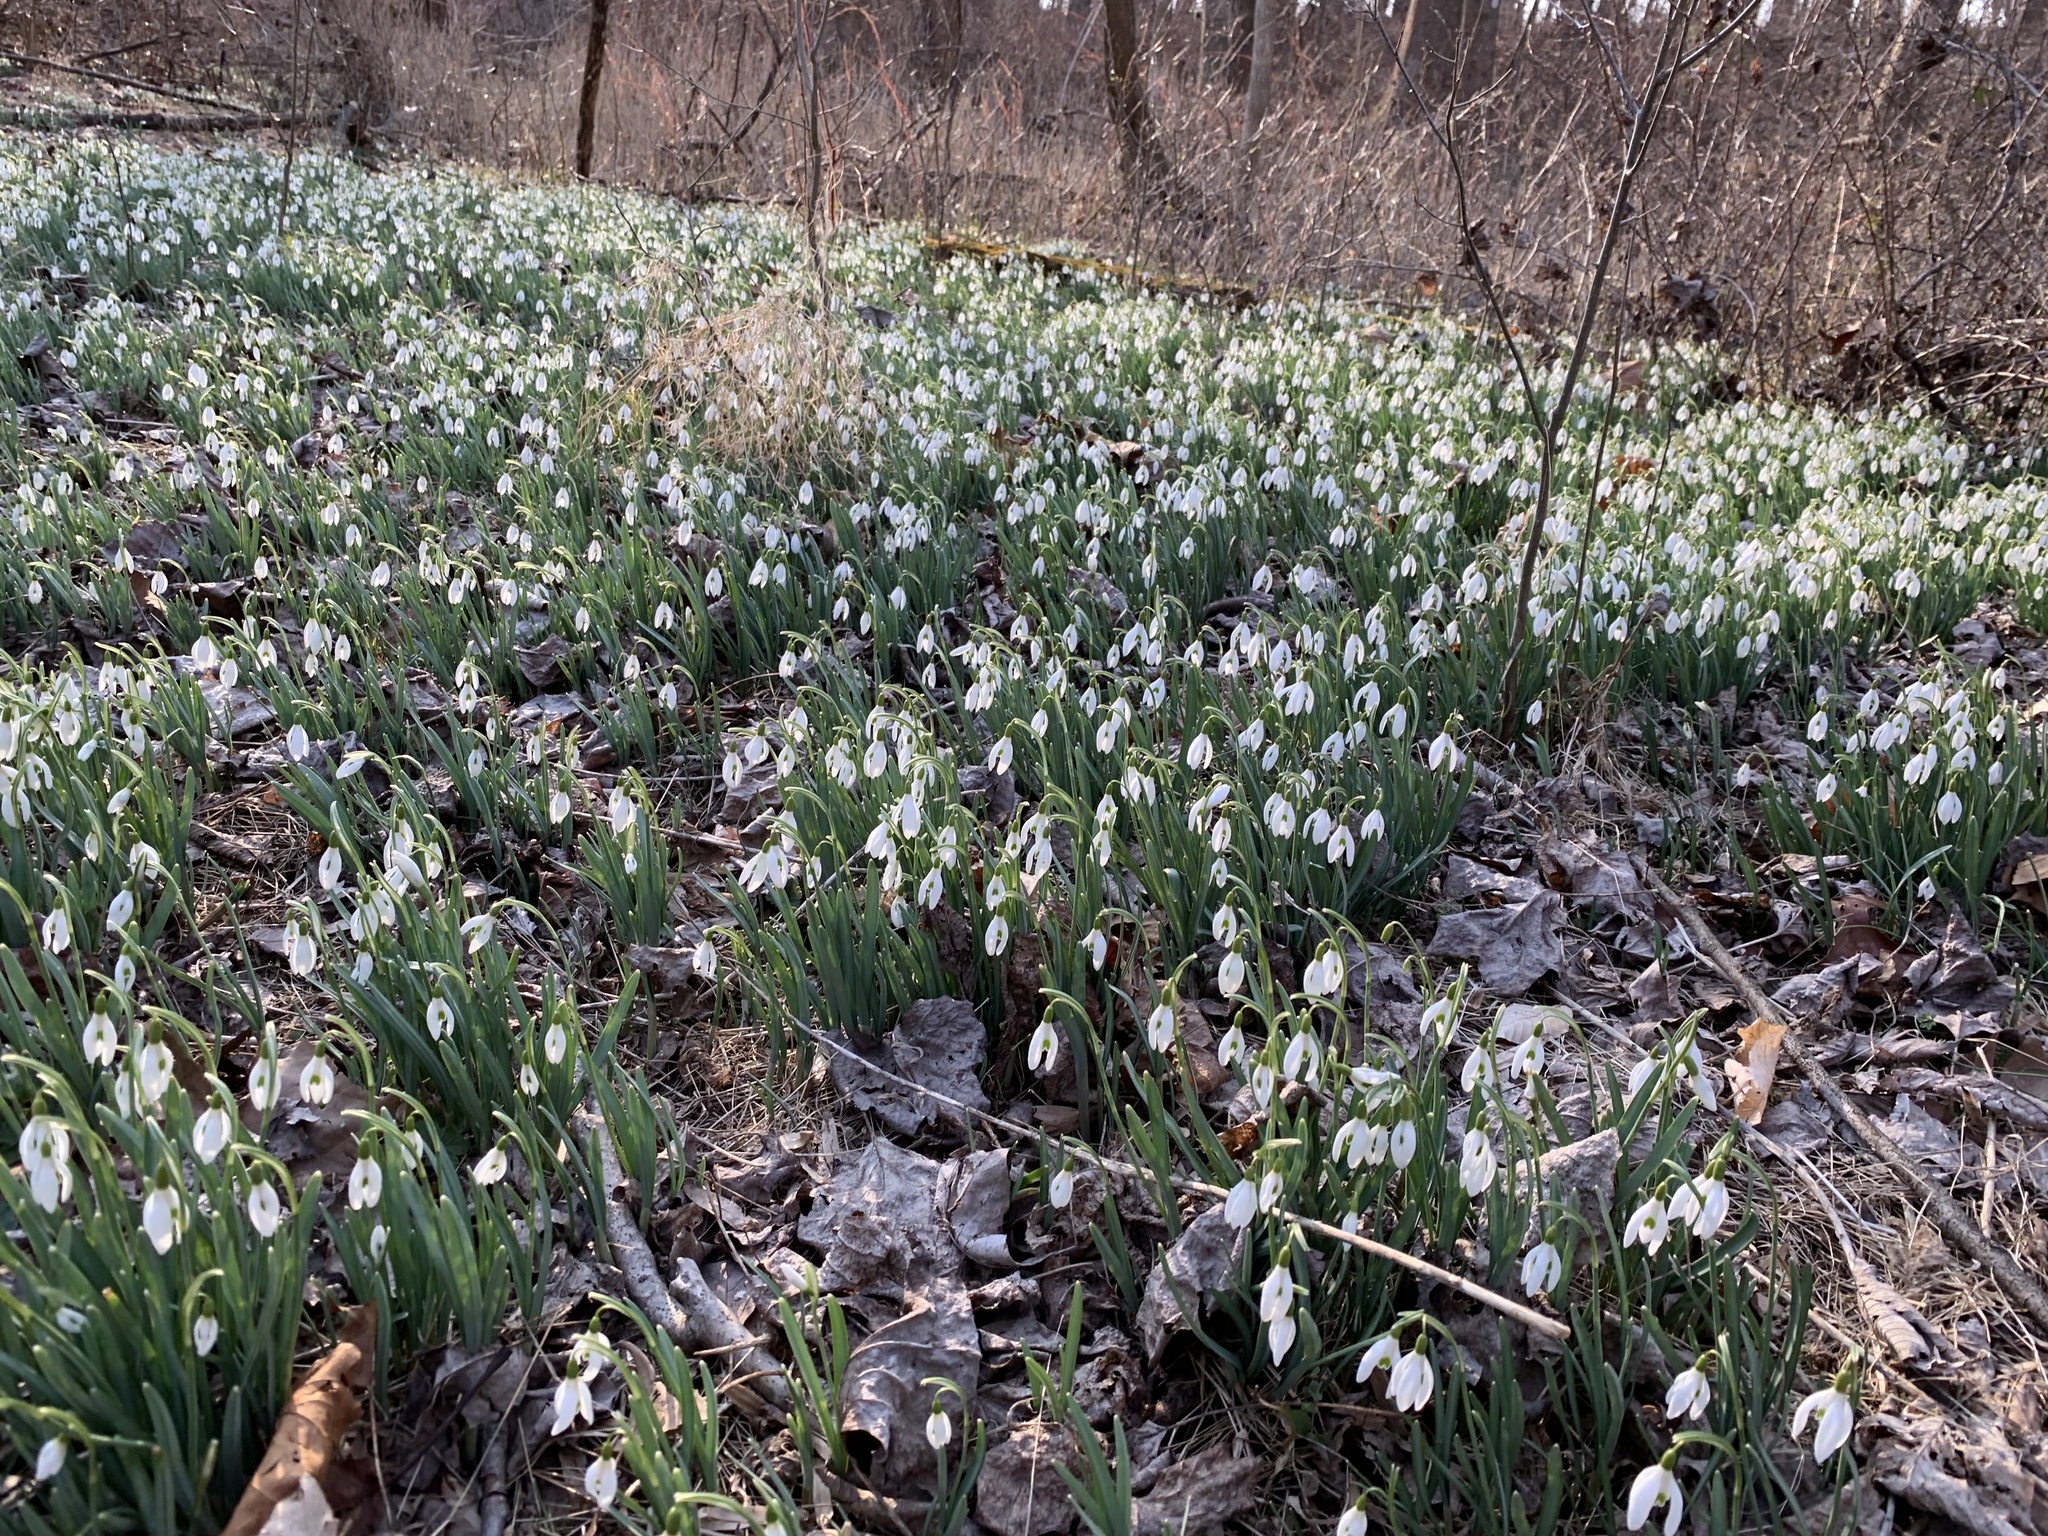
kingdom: Plantae
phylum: Tracheophyta
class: Liliopsida
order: Asparagales
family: Amaryllidaceae
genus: Galanthus
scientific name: Galanthus nivalis
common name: Snowdrop
